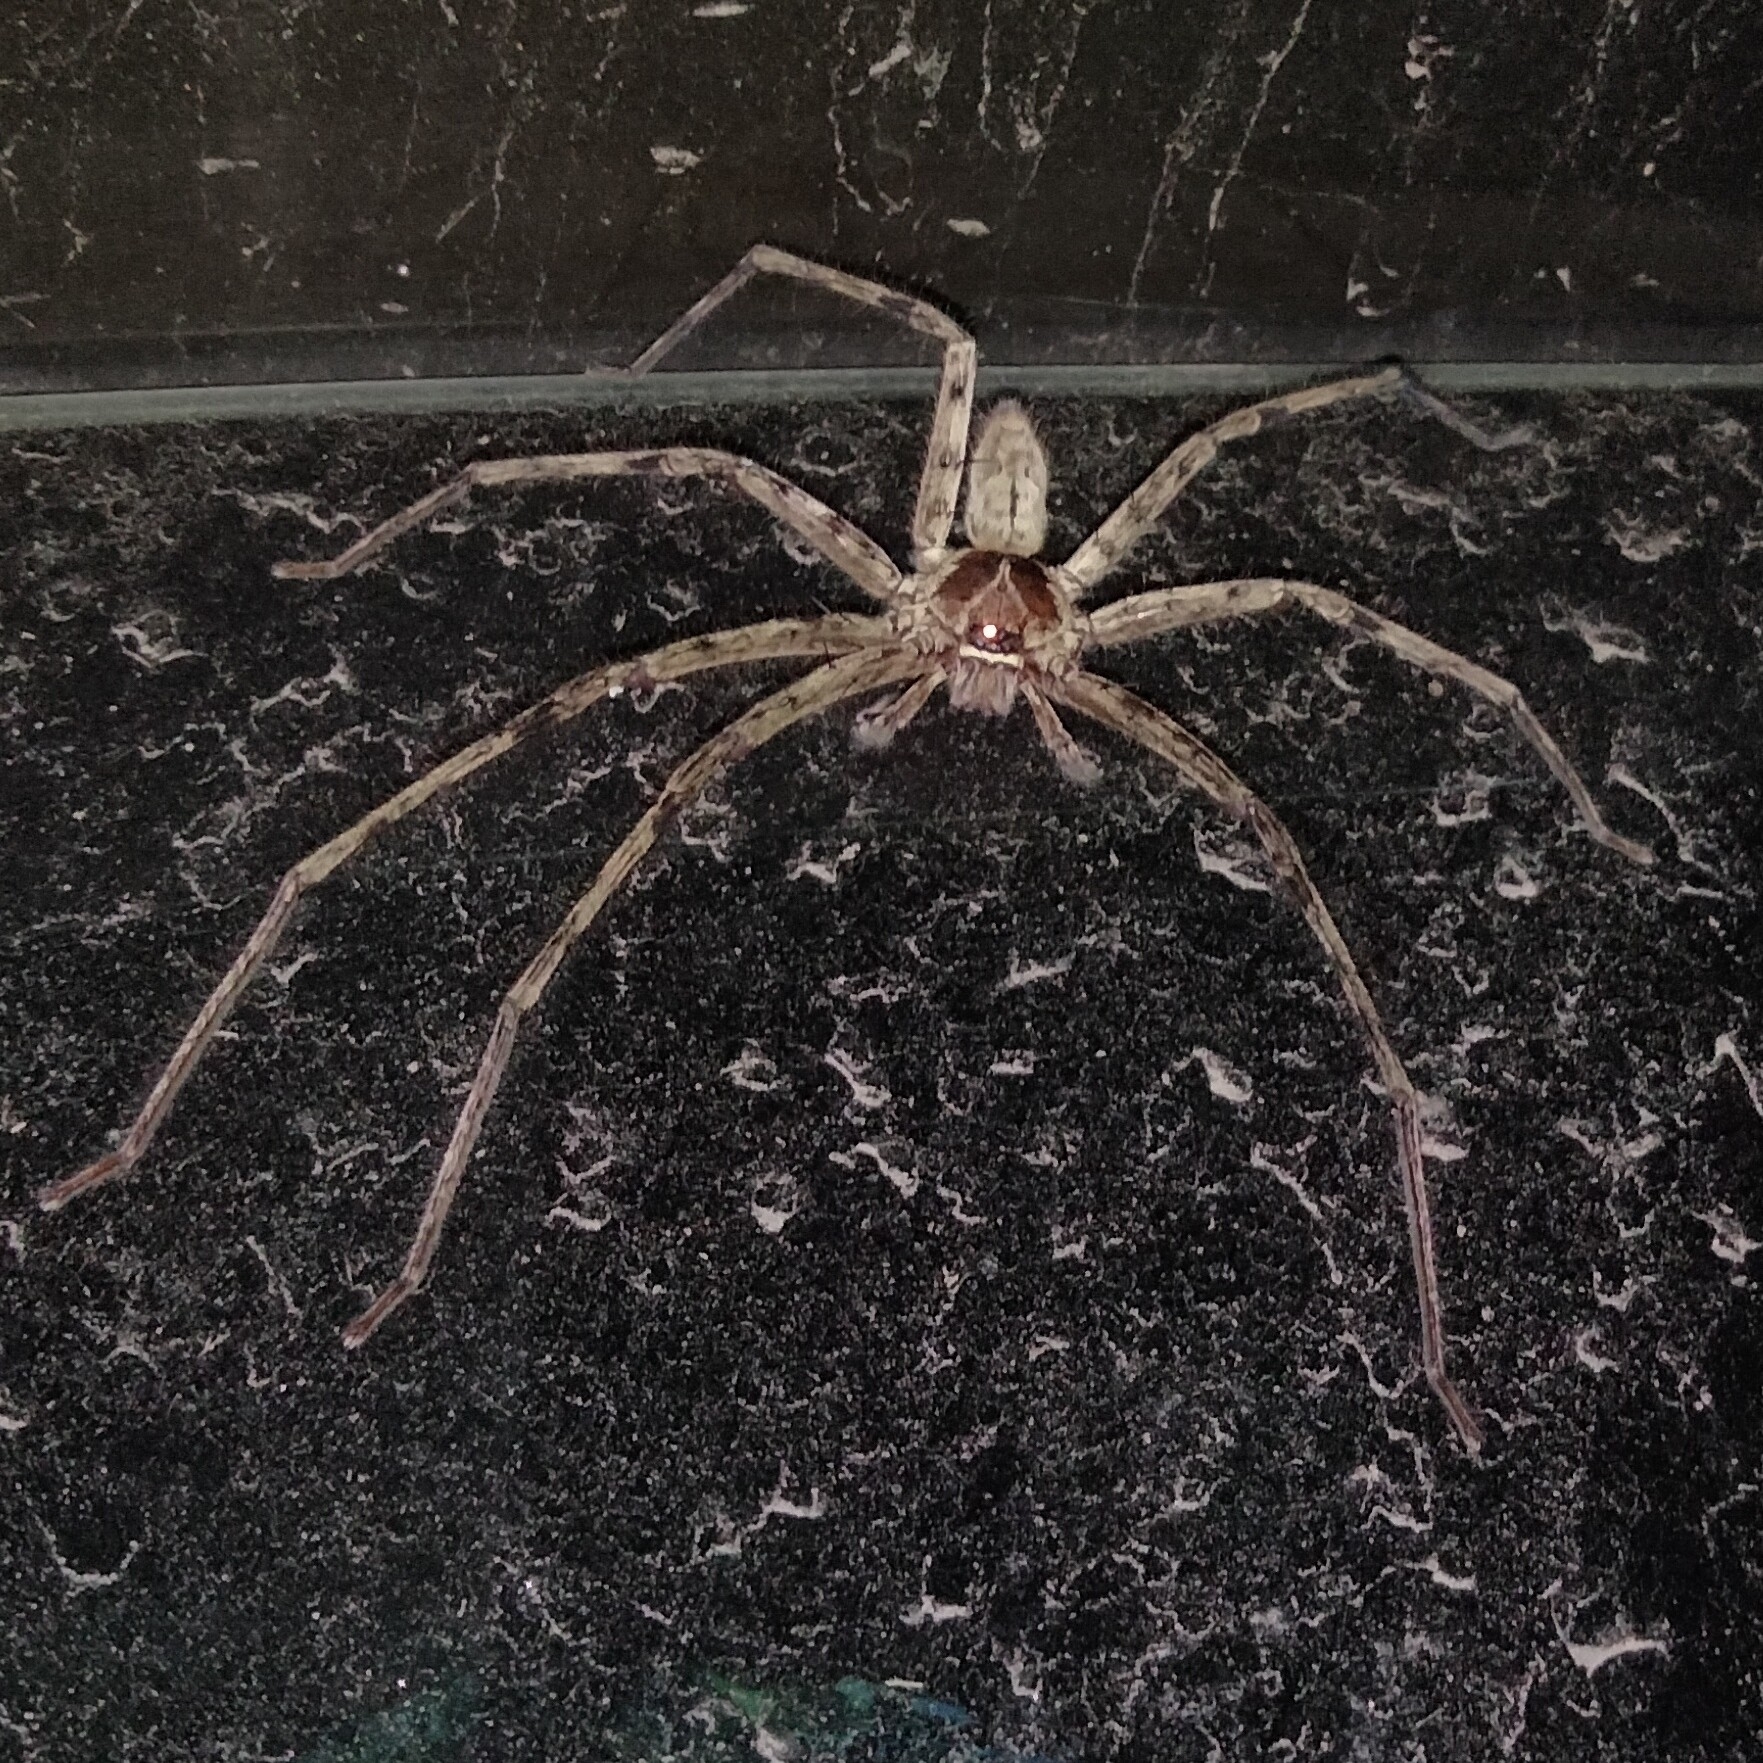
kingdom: Animalia
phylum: Arthropoda
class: Arachnida
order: Araneae
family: Sparassidae
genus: Heteropoda
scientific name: Heteropoda venatoria
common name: Huntsman spider
